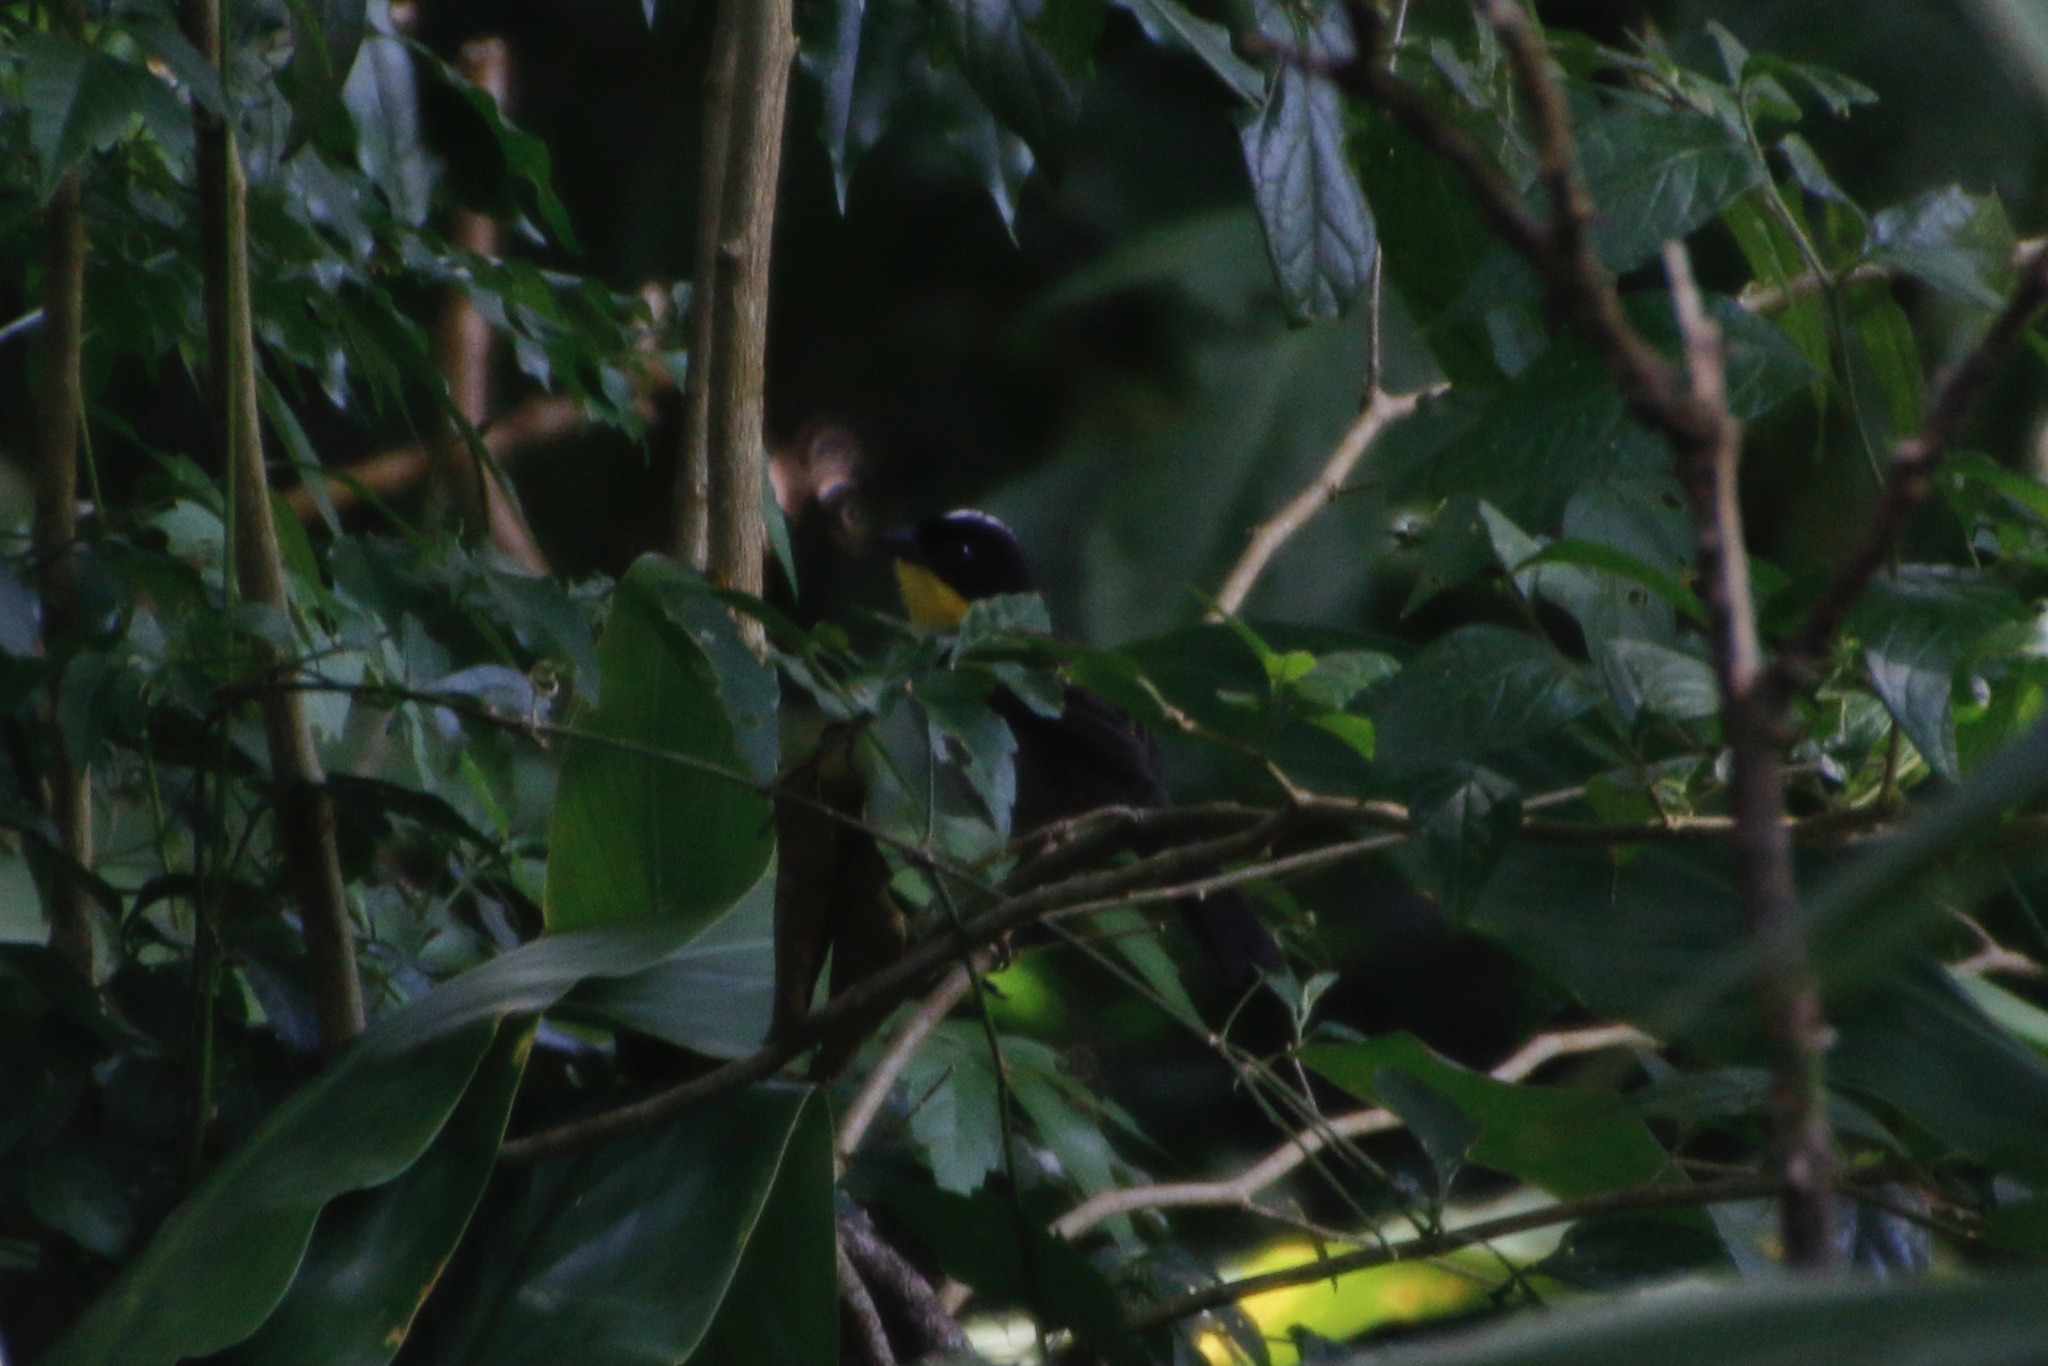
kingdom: Animalia
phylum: Chordata
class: Aves
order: Passeriformes
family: Passerellidae
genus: Atlapetes
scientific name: Atlapetes albinucha
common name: White-naped brush-finch
